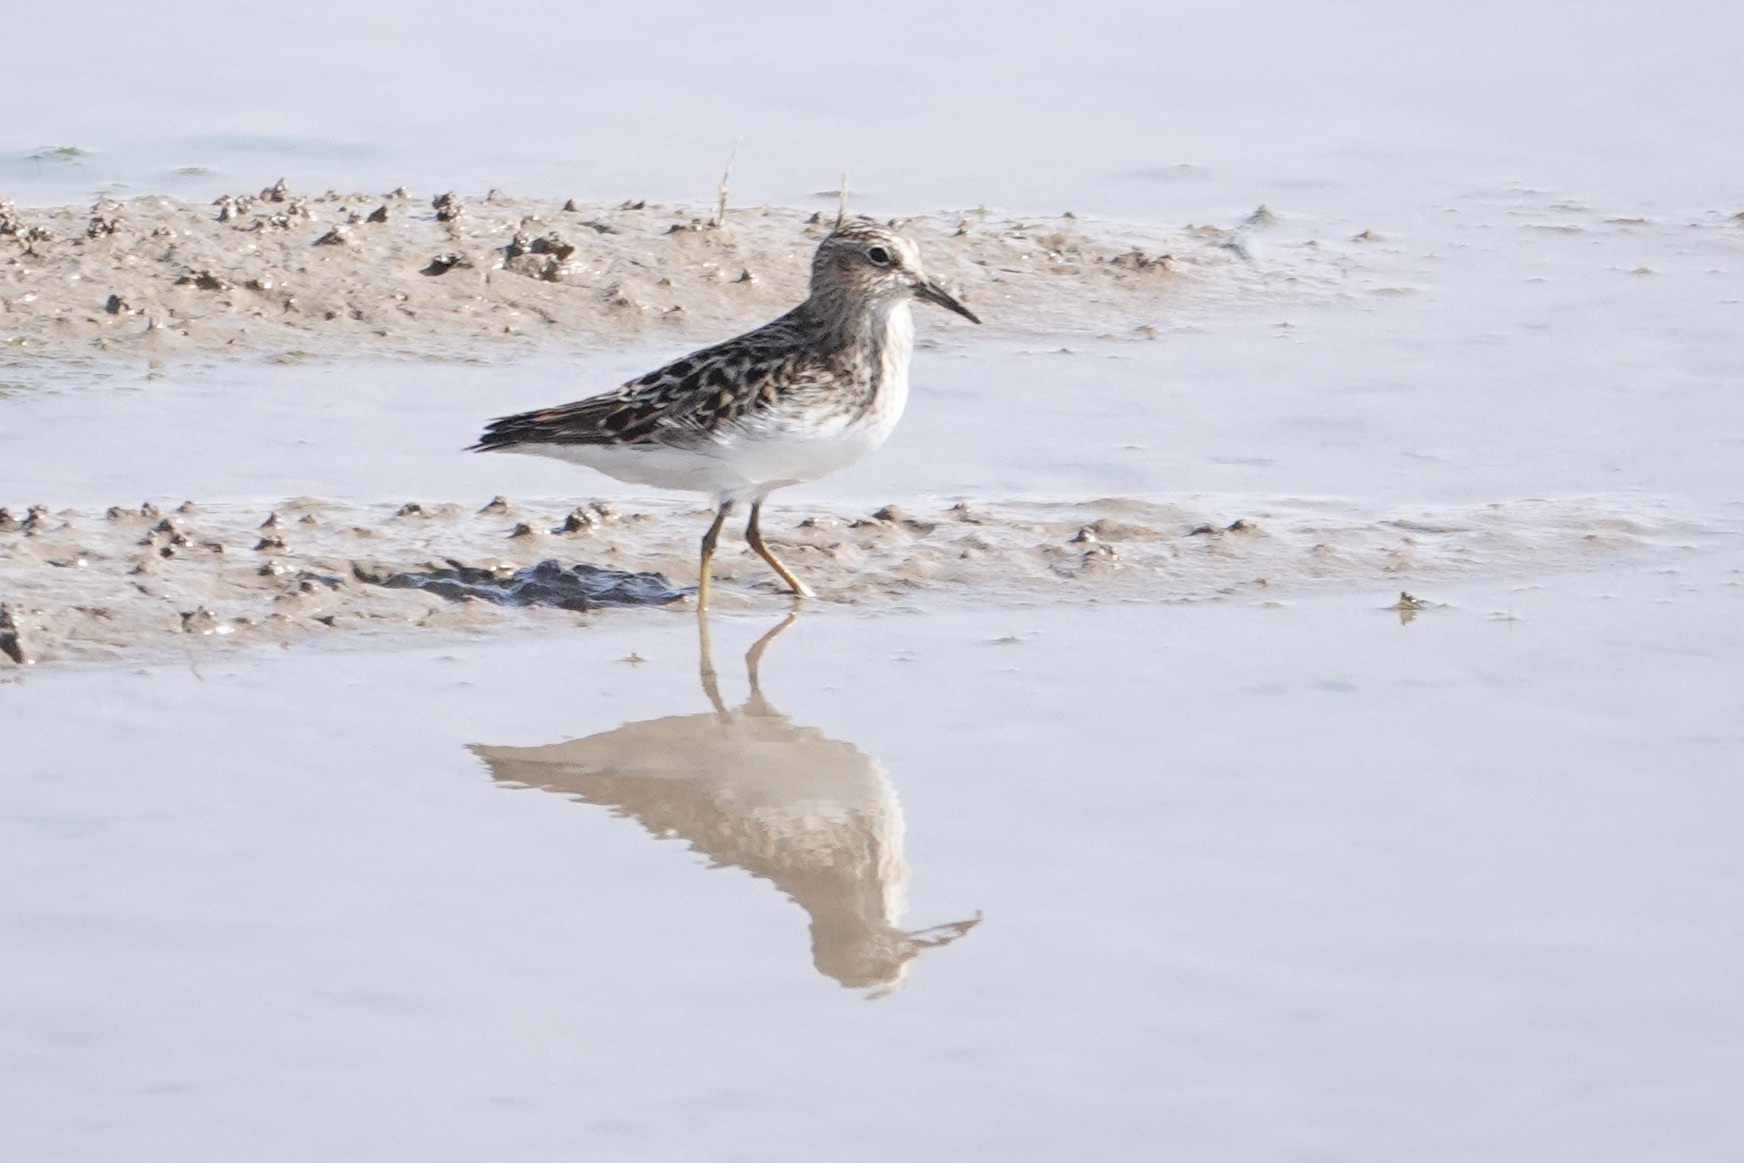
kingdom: Animalia
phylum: Chordata
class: Aves
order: Charadriiformes
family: Scolopacidae
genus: Calidris
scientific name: Calidris minutilla
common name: Least sandpiper
